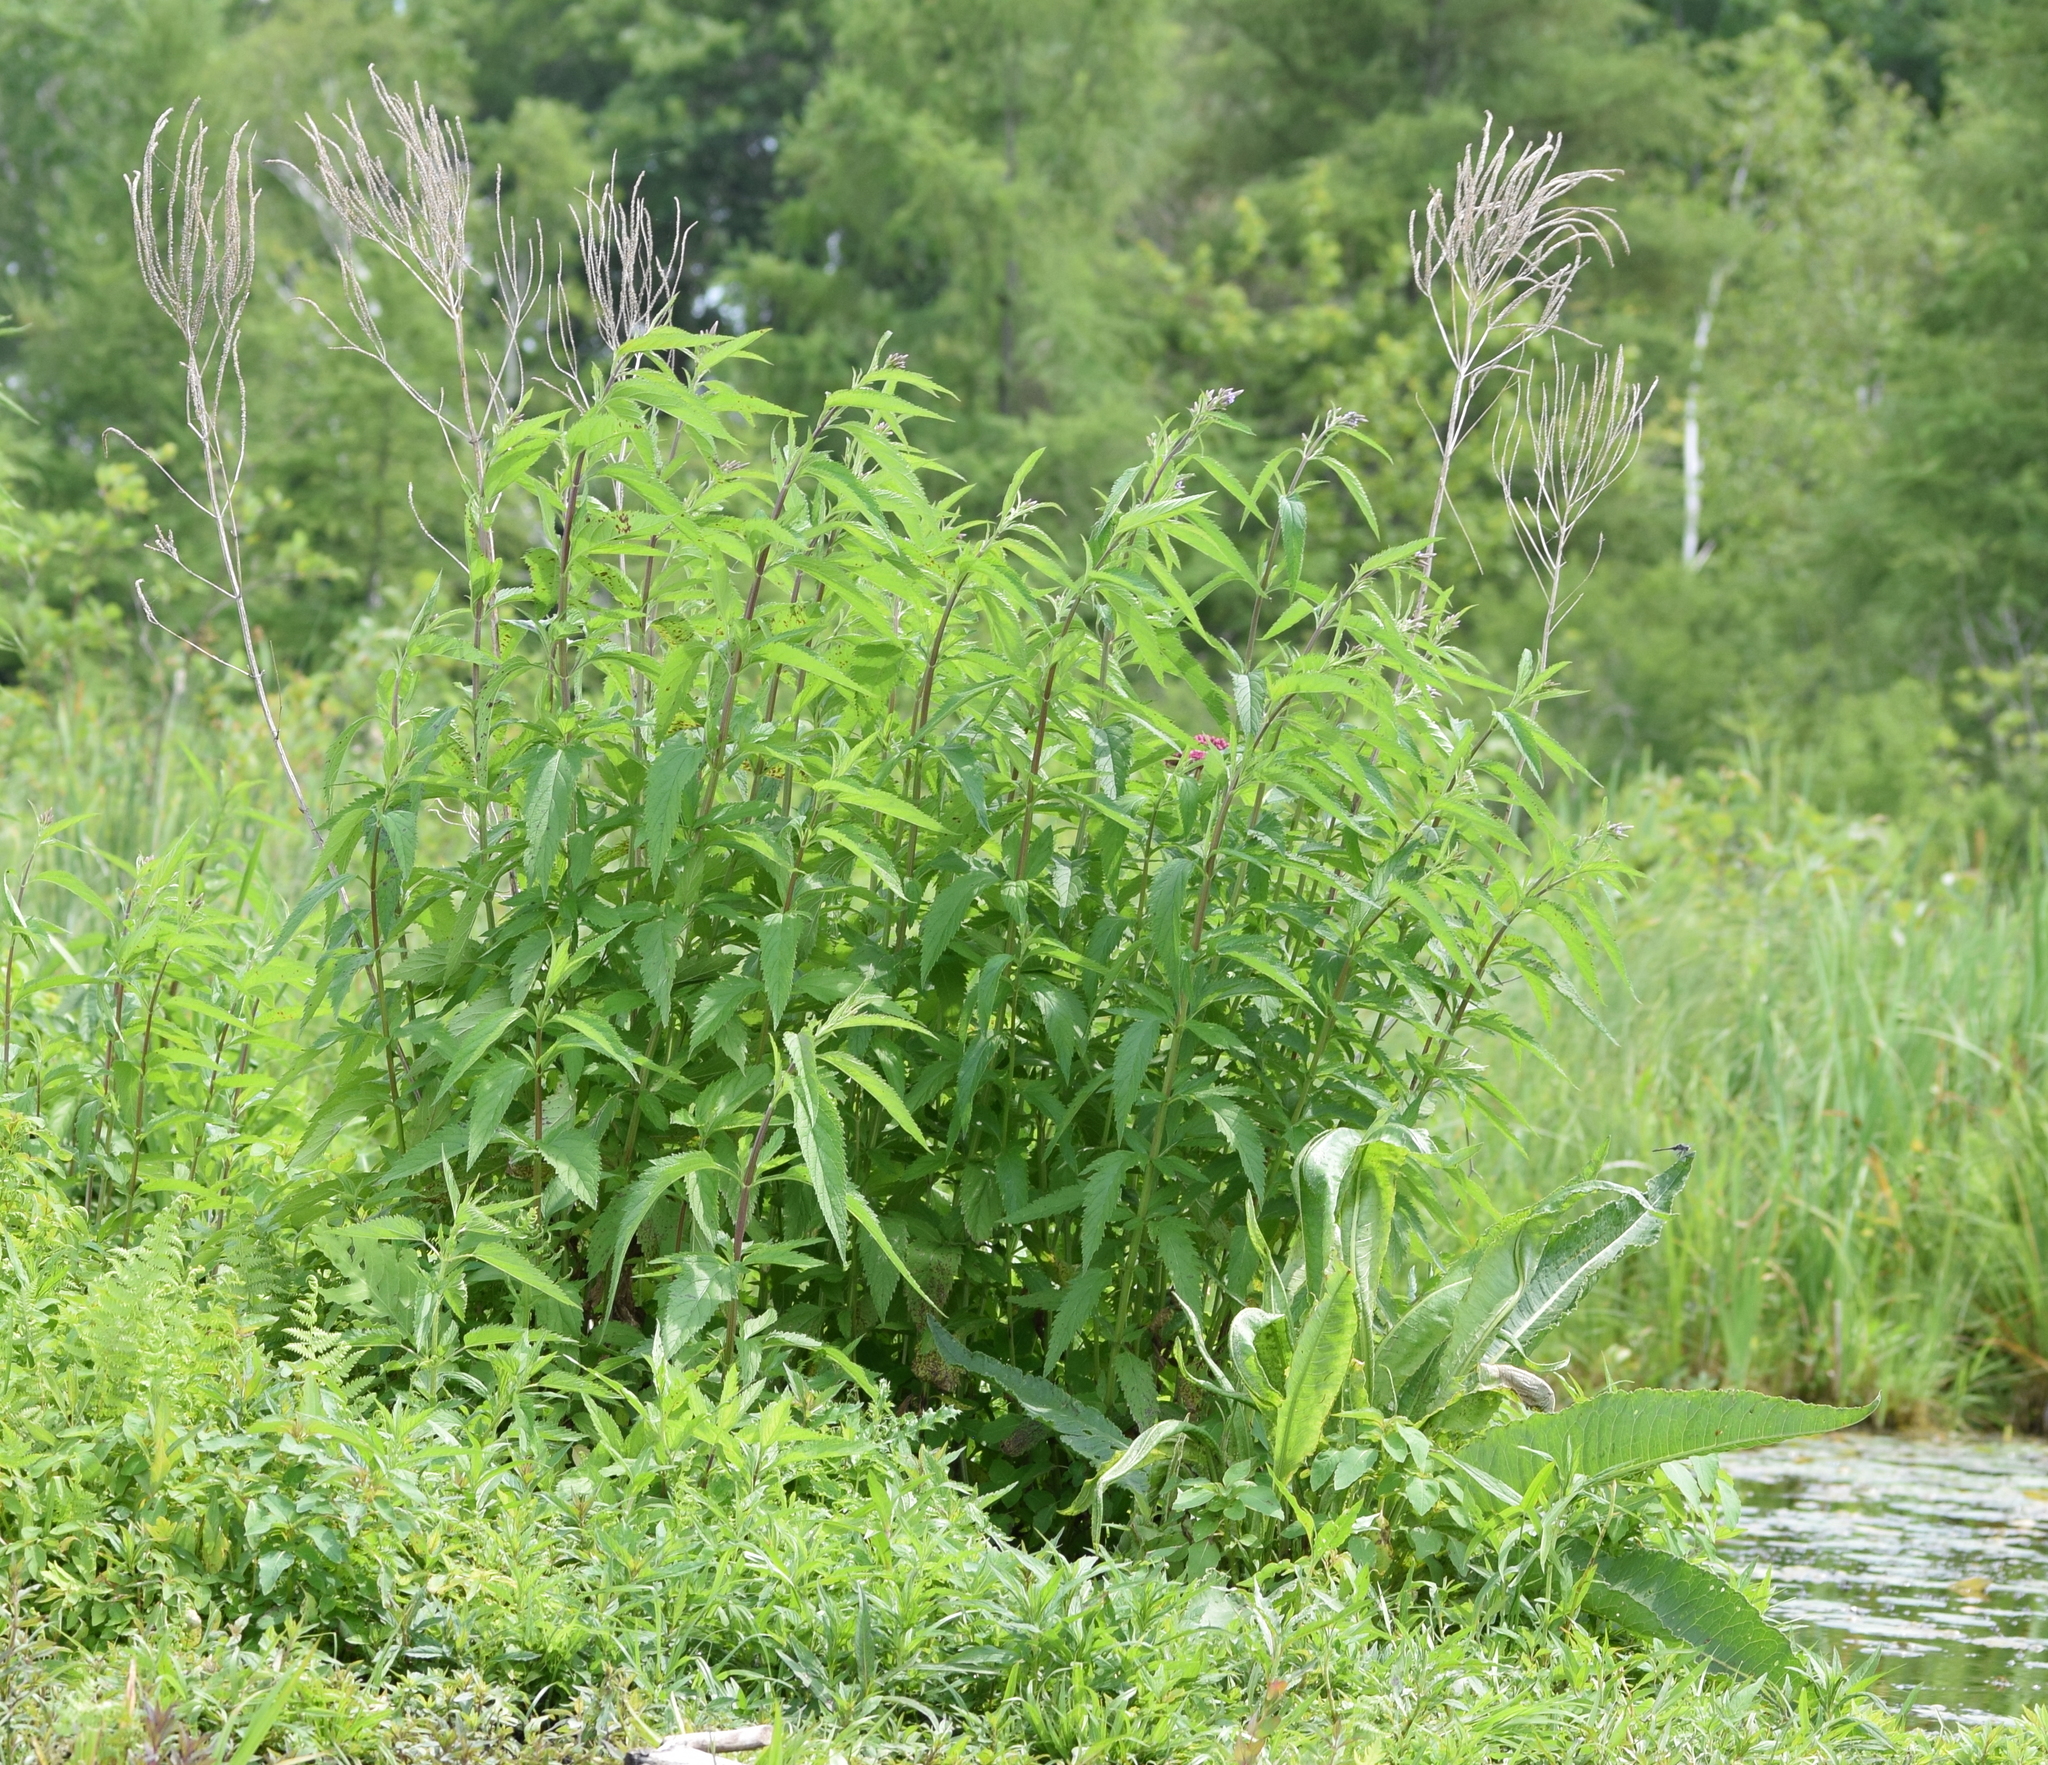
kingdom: Plantae
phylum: Tracheophyta
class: Magnoliopsida
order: Lamiales
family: Verbenaceae
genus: Verbena
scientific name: Verbena hastata
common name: American blue vervain
